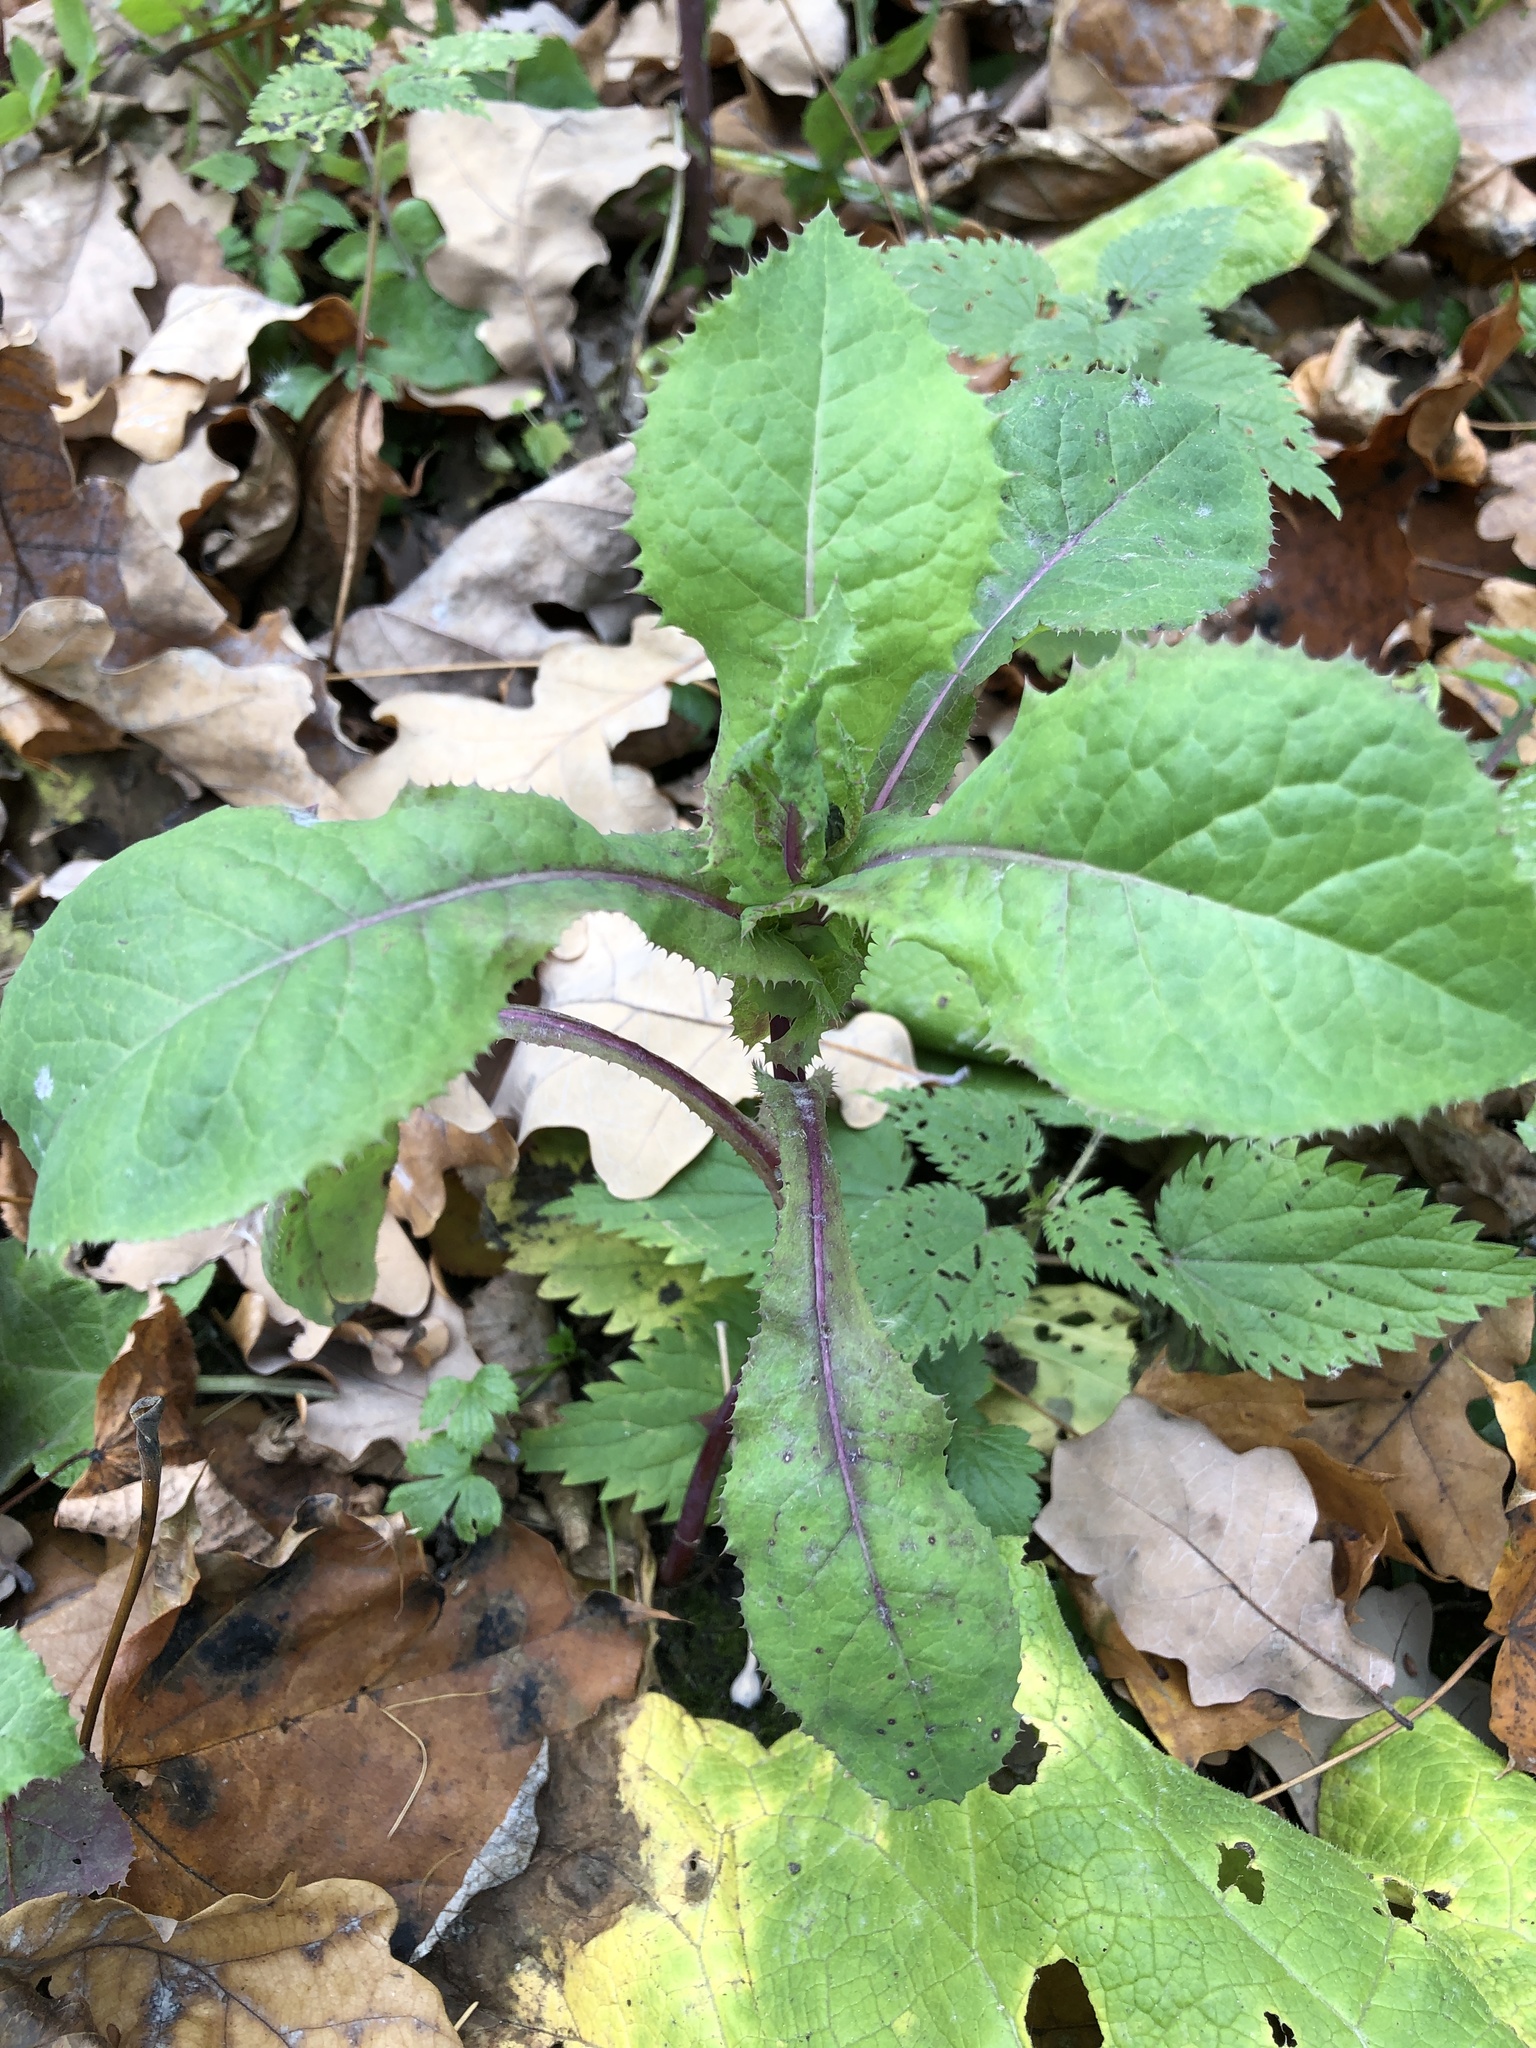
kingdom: Plantae
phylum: Tracheophyta
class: Magnoliopsida
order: Asterales
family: Asteraceae
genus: Sonchus
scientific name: Sonchus asper
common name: Prickly sow-thistle
